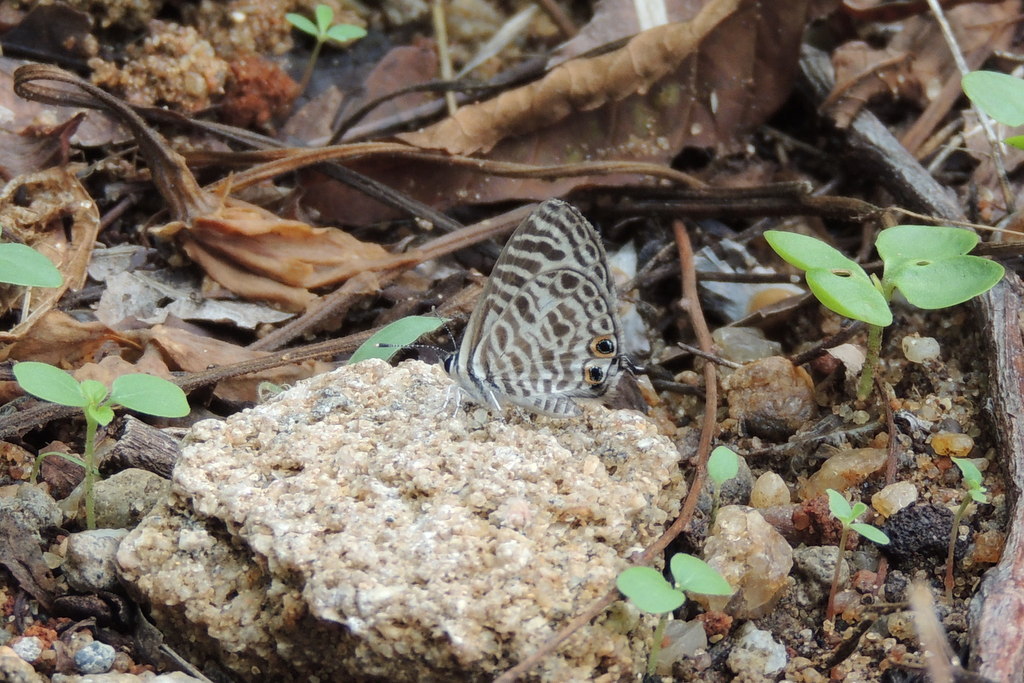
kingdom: Animalia
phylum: Arthropoda
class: Insecta
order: Lepidoptera
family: Lycaenidae
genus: Leptotes
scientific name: Leptotes plinius
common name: Zebra blue
